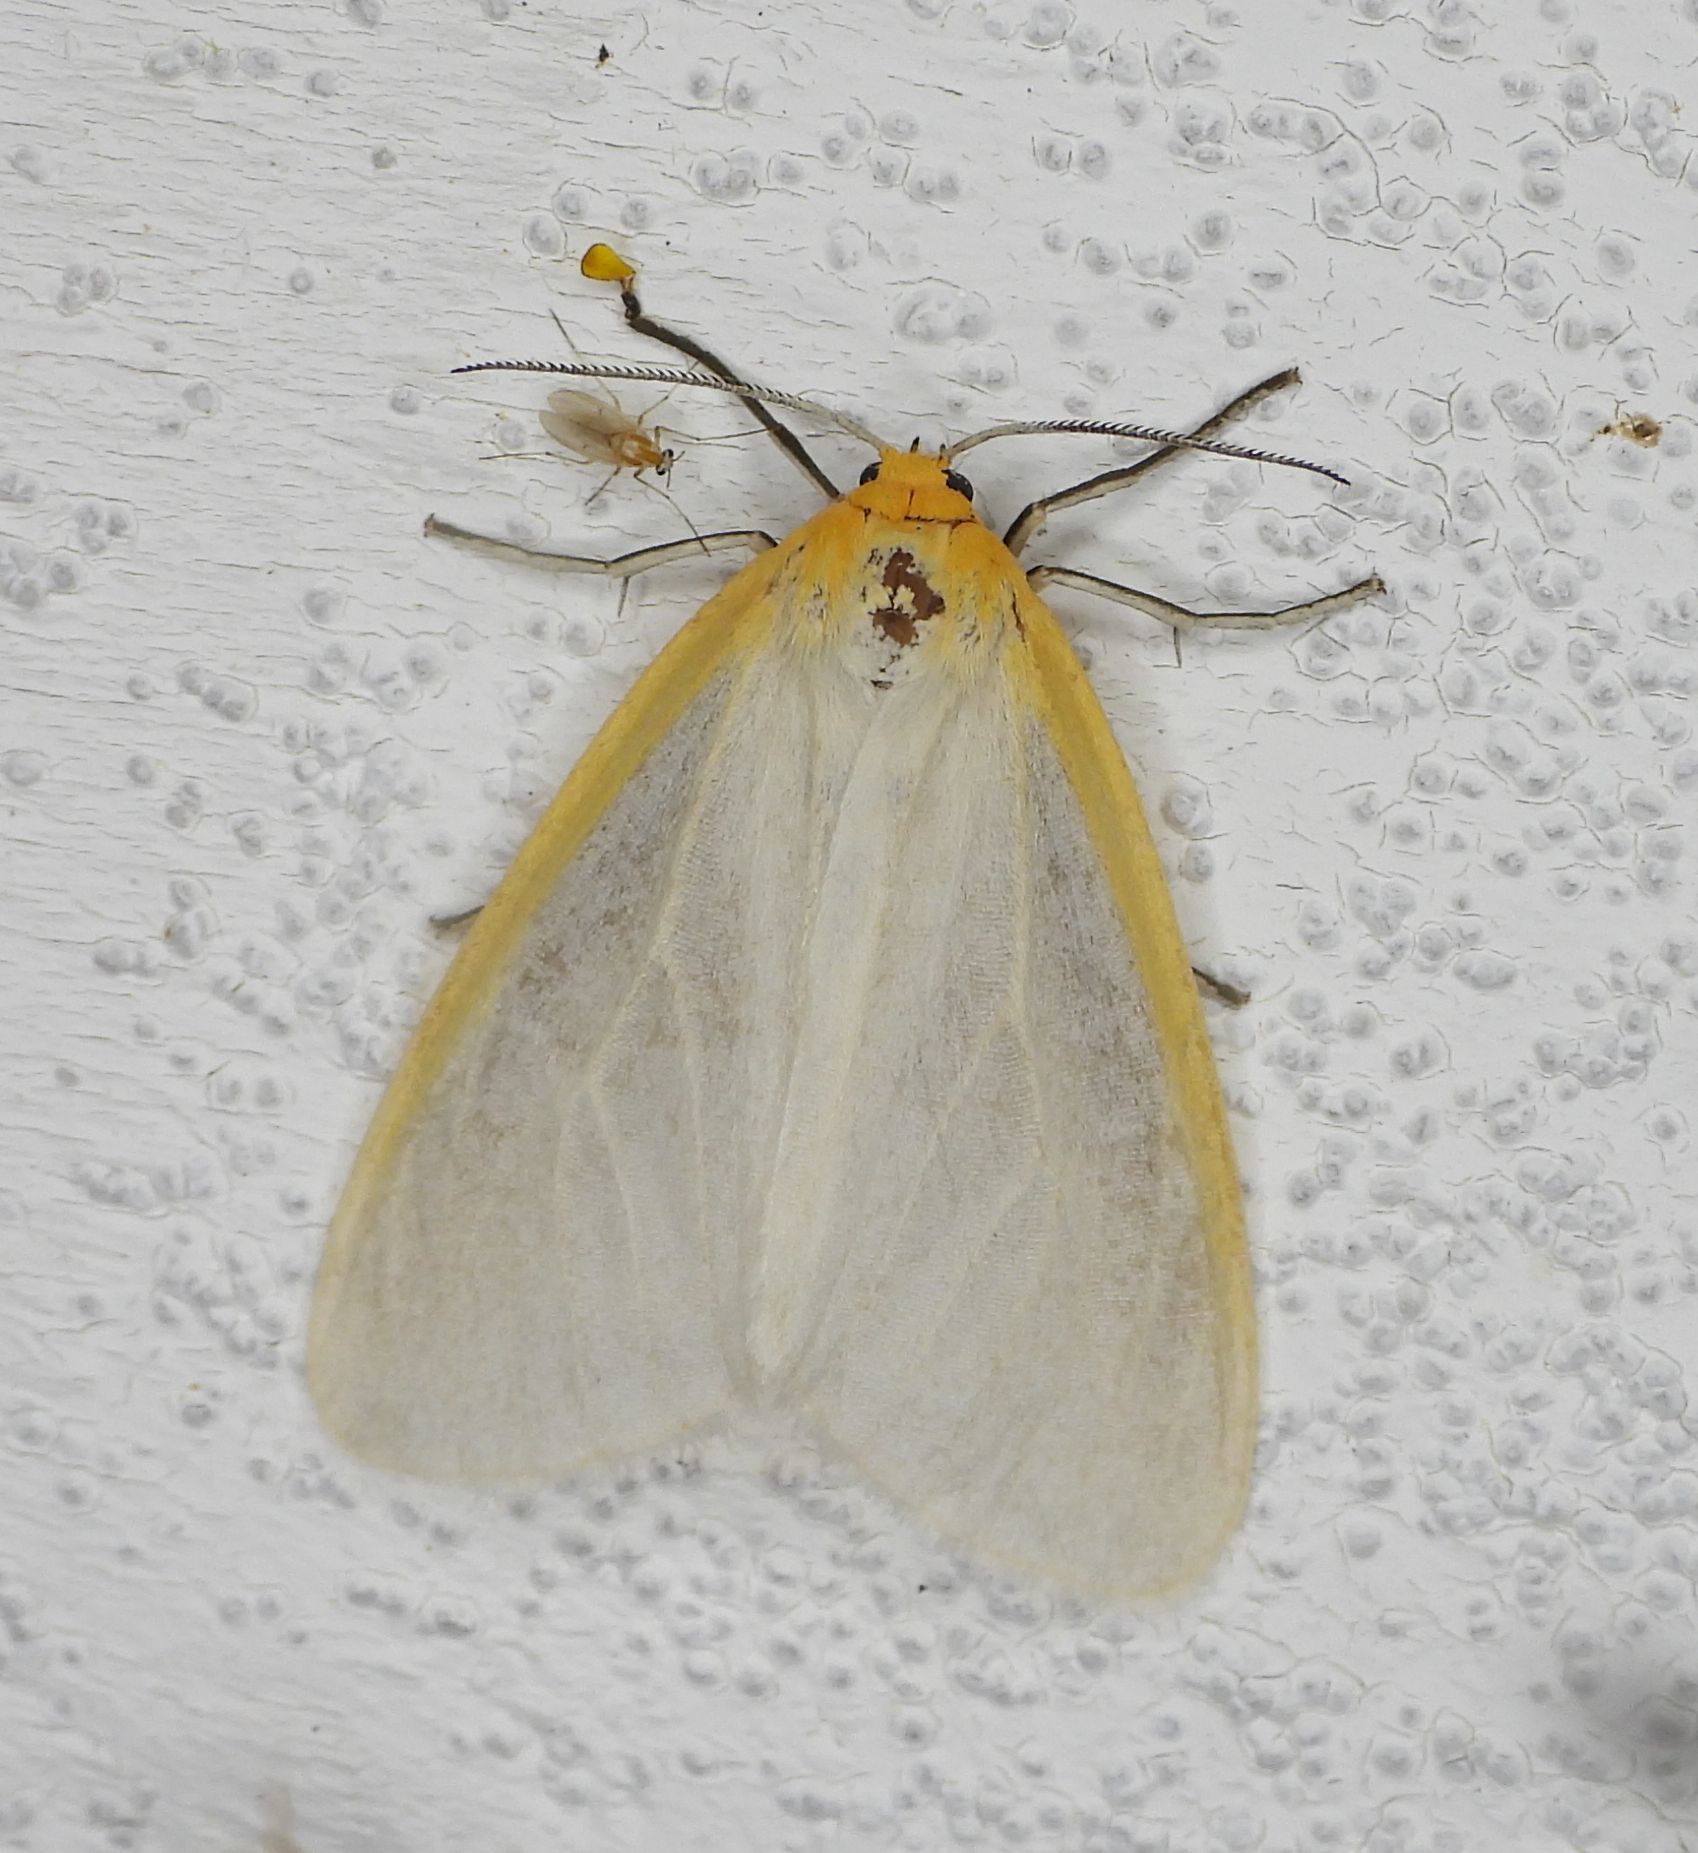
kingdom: Animalia
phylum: Arthropoda
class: Insecta
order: Lepidoptera
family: Erebidae
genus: Cycnia
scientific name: Cycnia tenera
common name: Delicate cycnia moth
